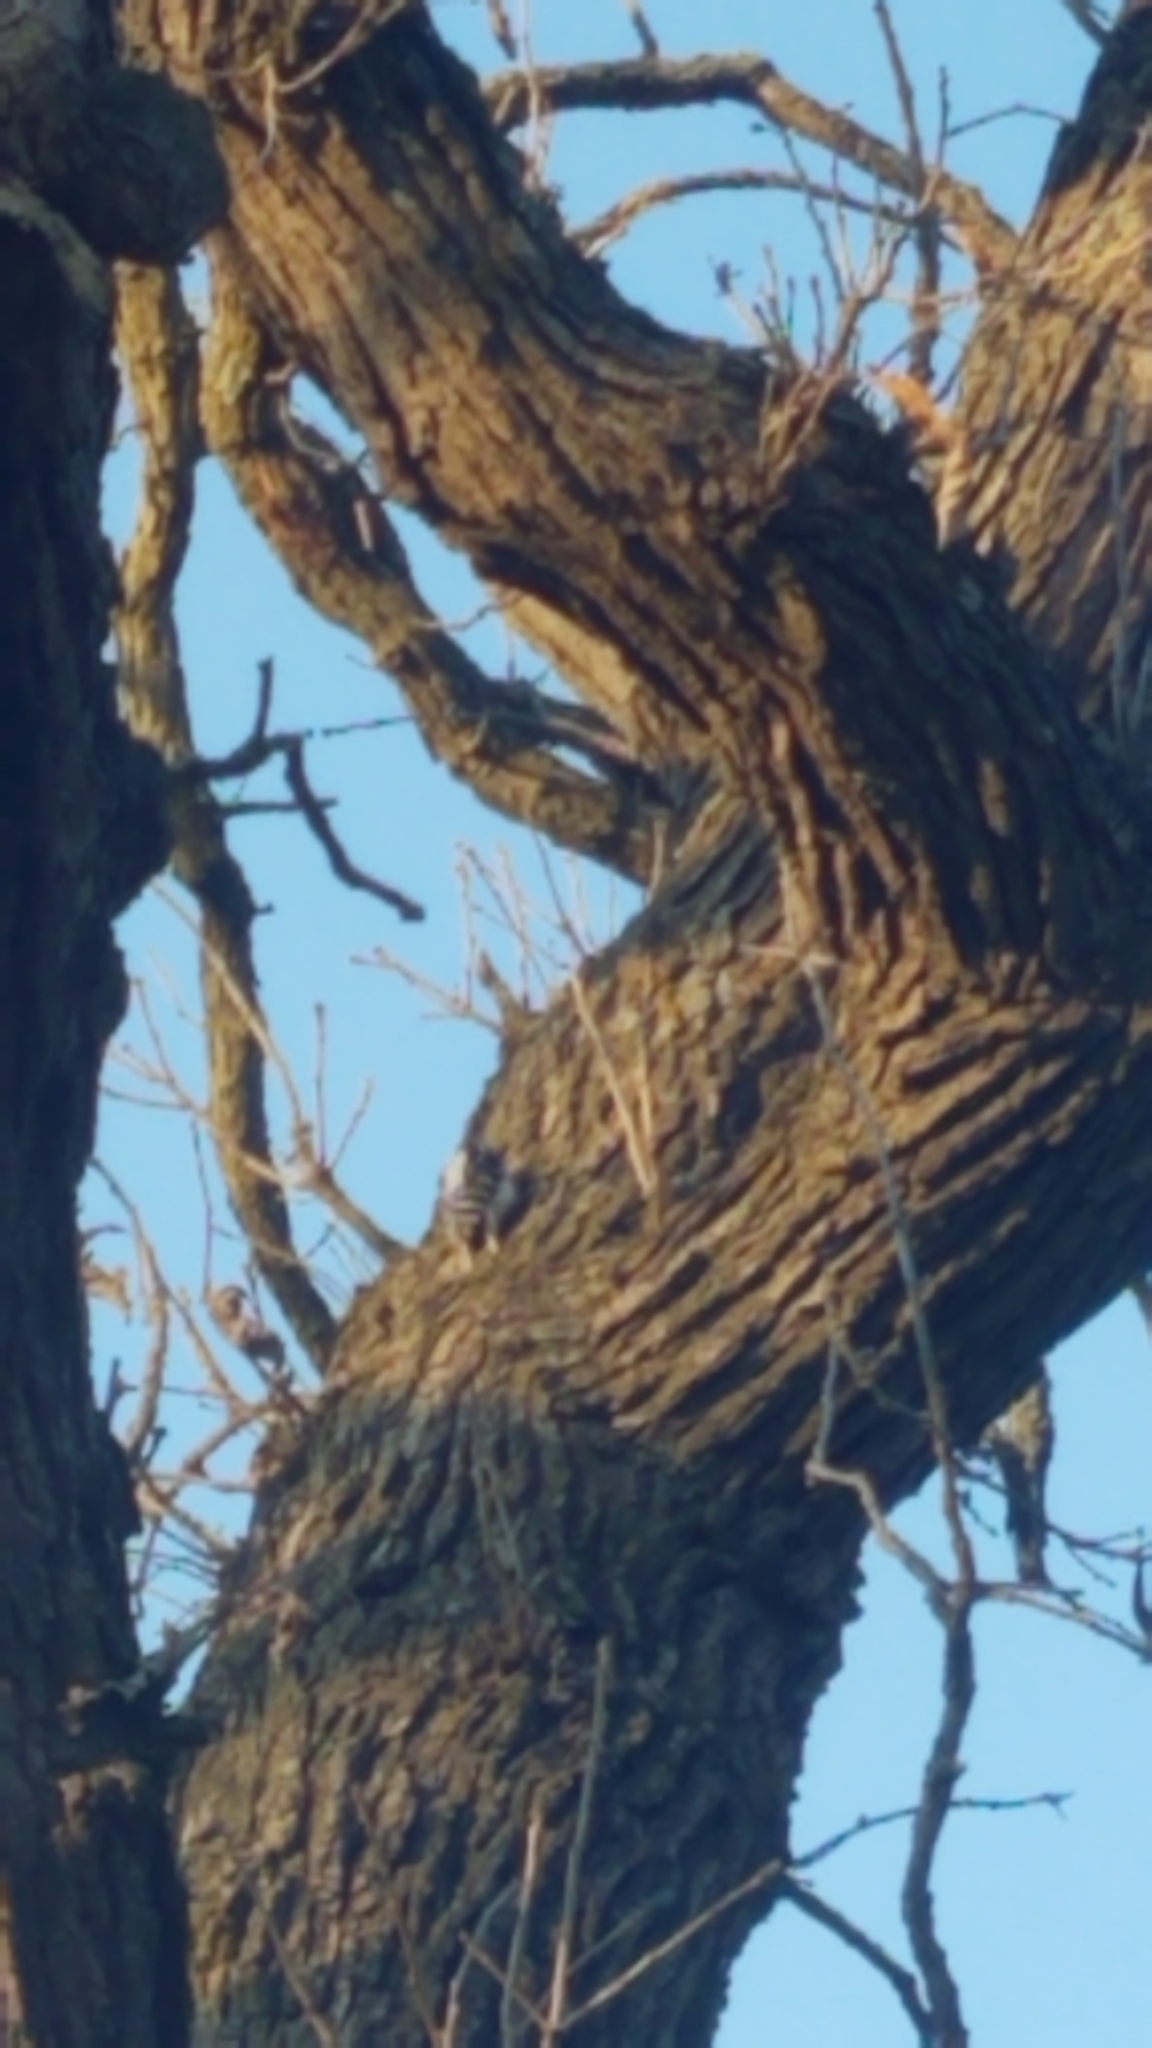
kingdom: Animalia
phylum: Chordata
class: Aves
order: Piciformes
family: Picidae
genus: Dryobates
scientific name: Dryobates pubescens
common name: Downy woodpecker
